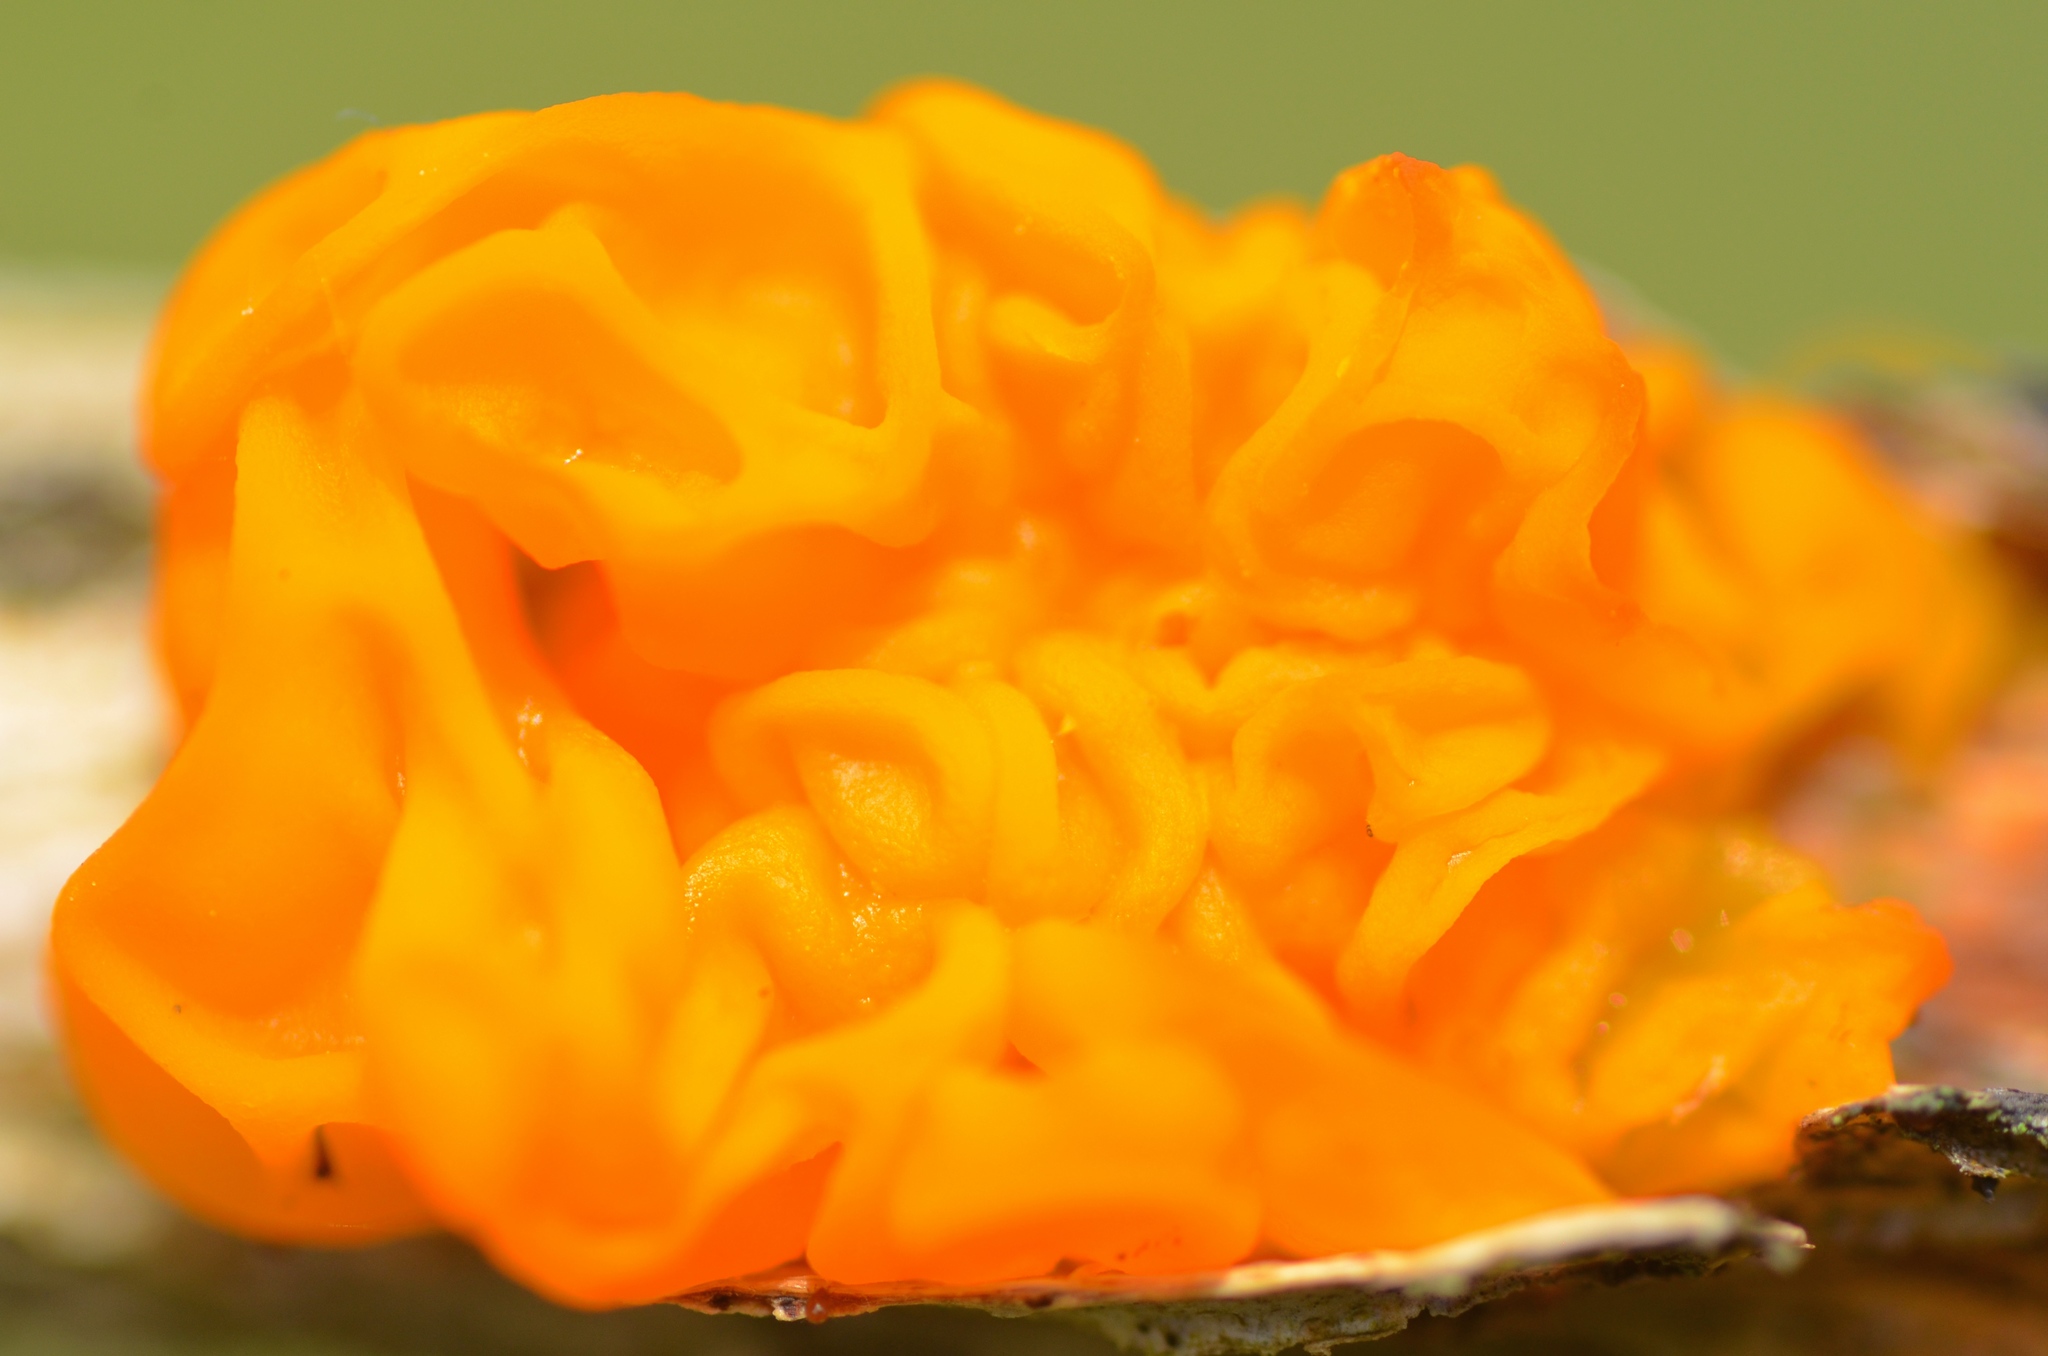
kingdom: Fungi
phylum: Basidiomycota
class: Tremellomycetes
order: Tremellales
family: Tremellaceae
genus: Tremella
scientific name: Tremella mesenterica
